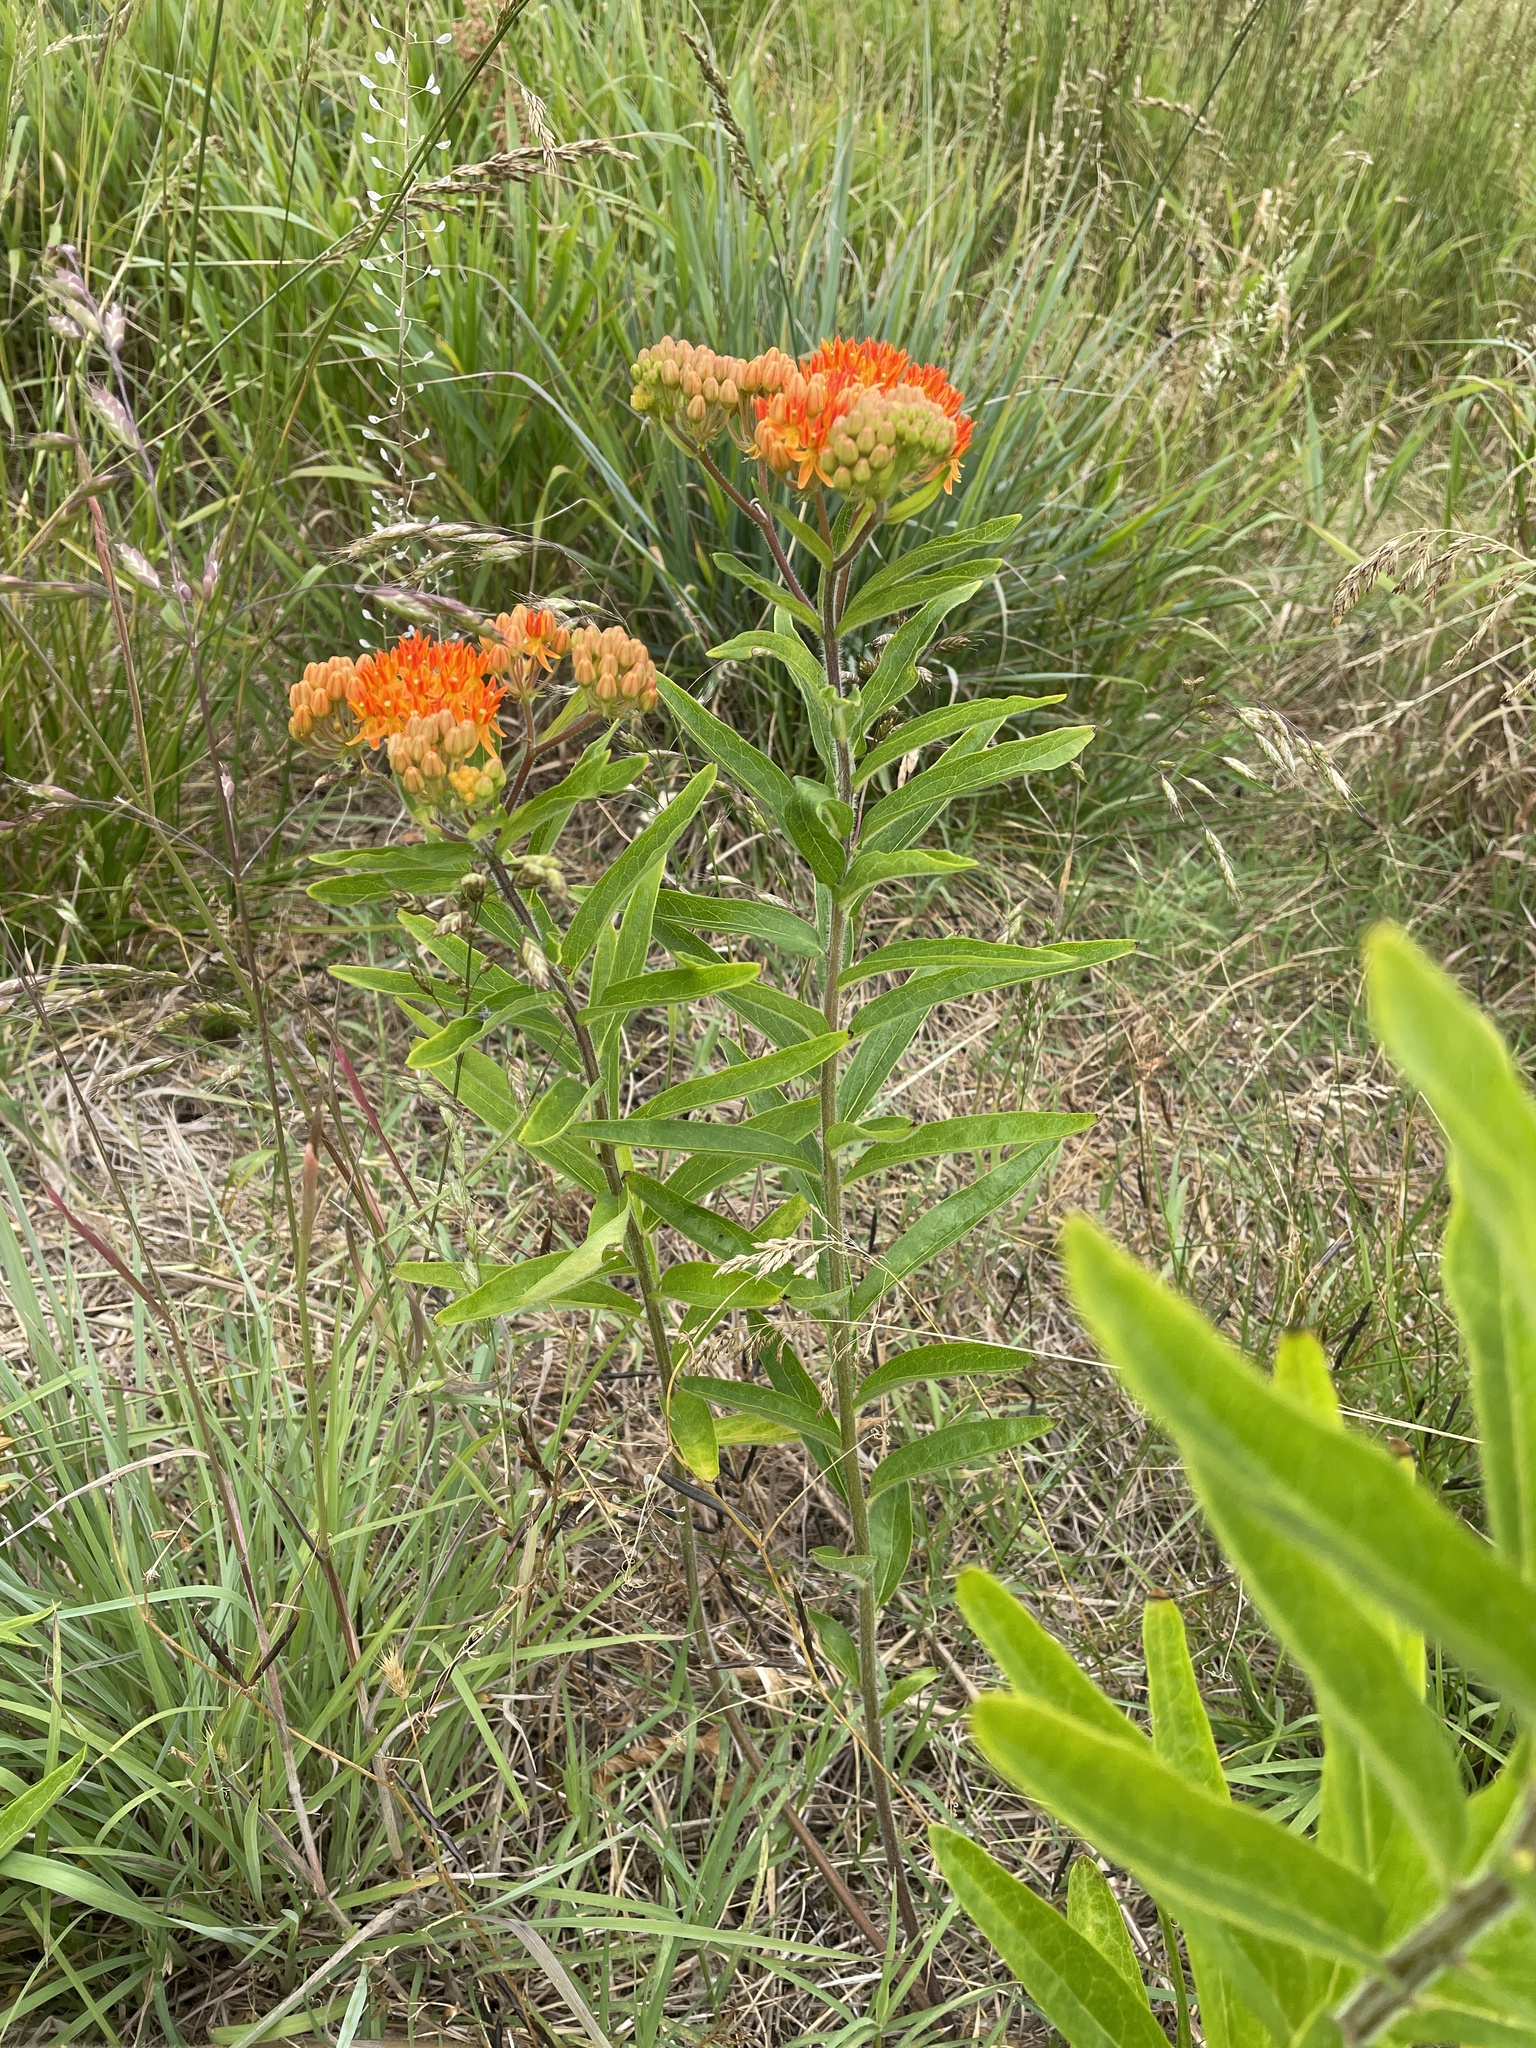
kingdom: Plantae
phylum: Tracheophyta
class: Magnoliopsida
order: Gentianales
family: Apocynaceae
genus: Asclepias
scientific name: Asclepias tuberosa
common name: Butterfly milkweed
